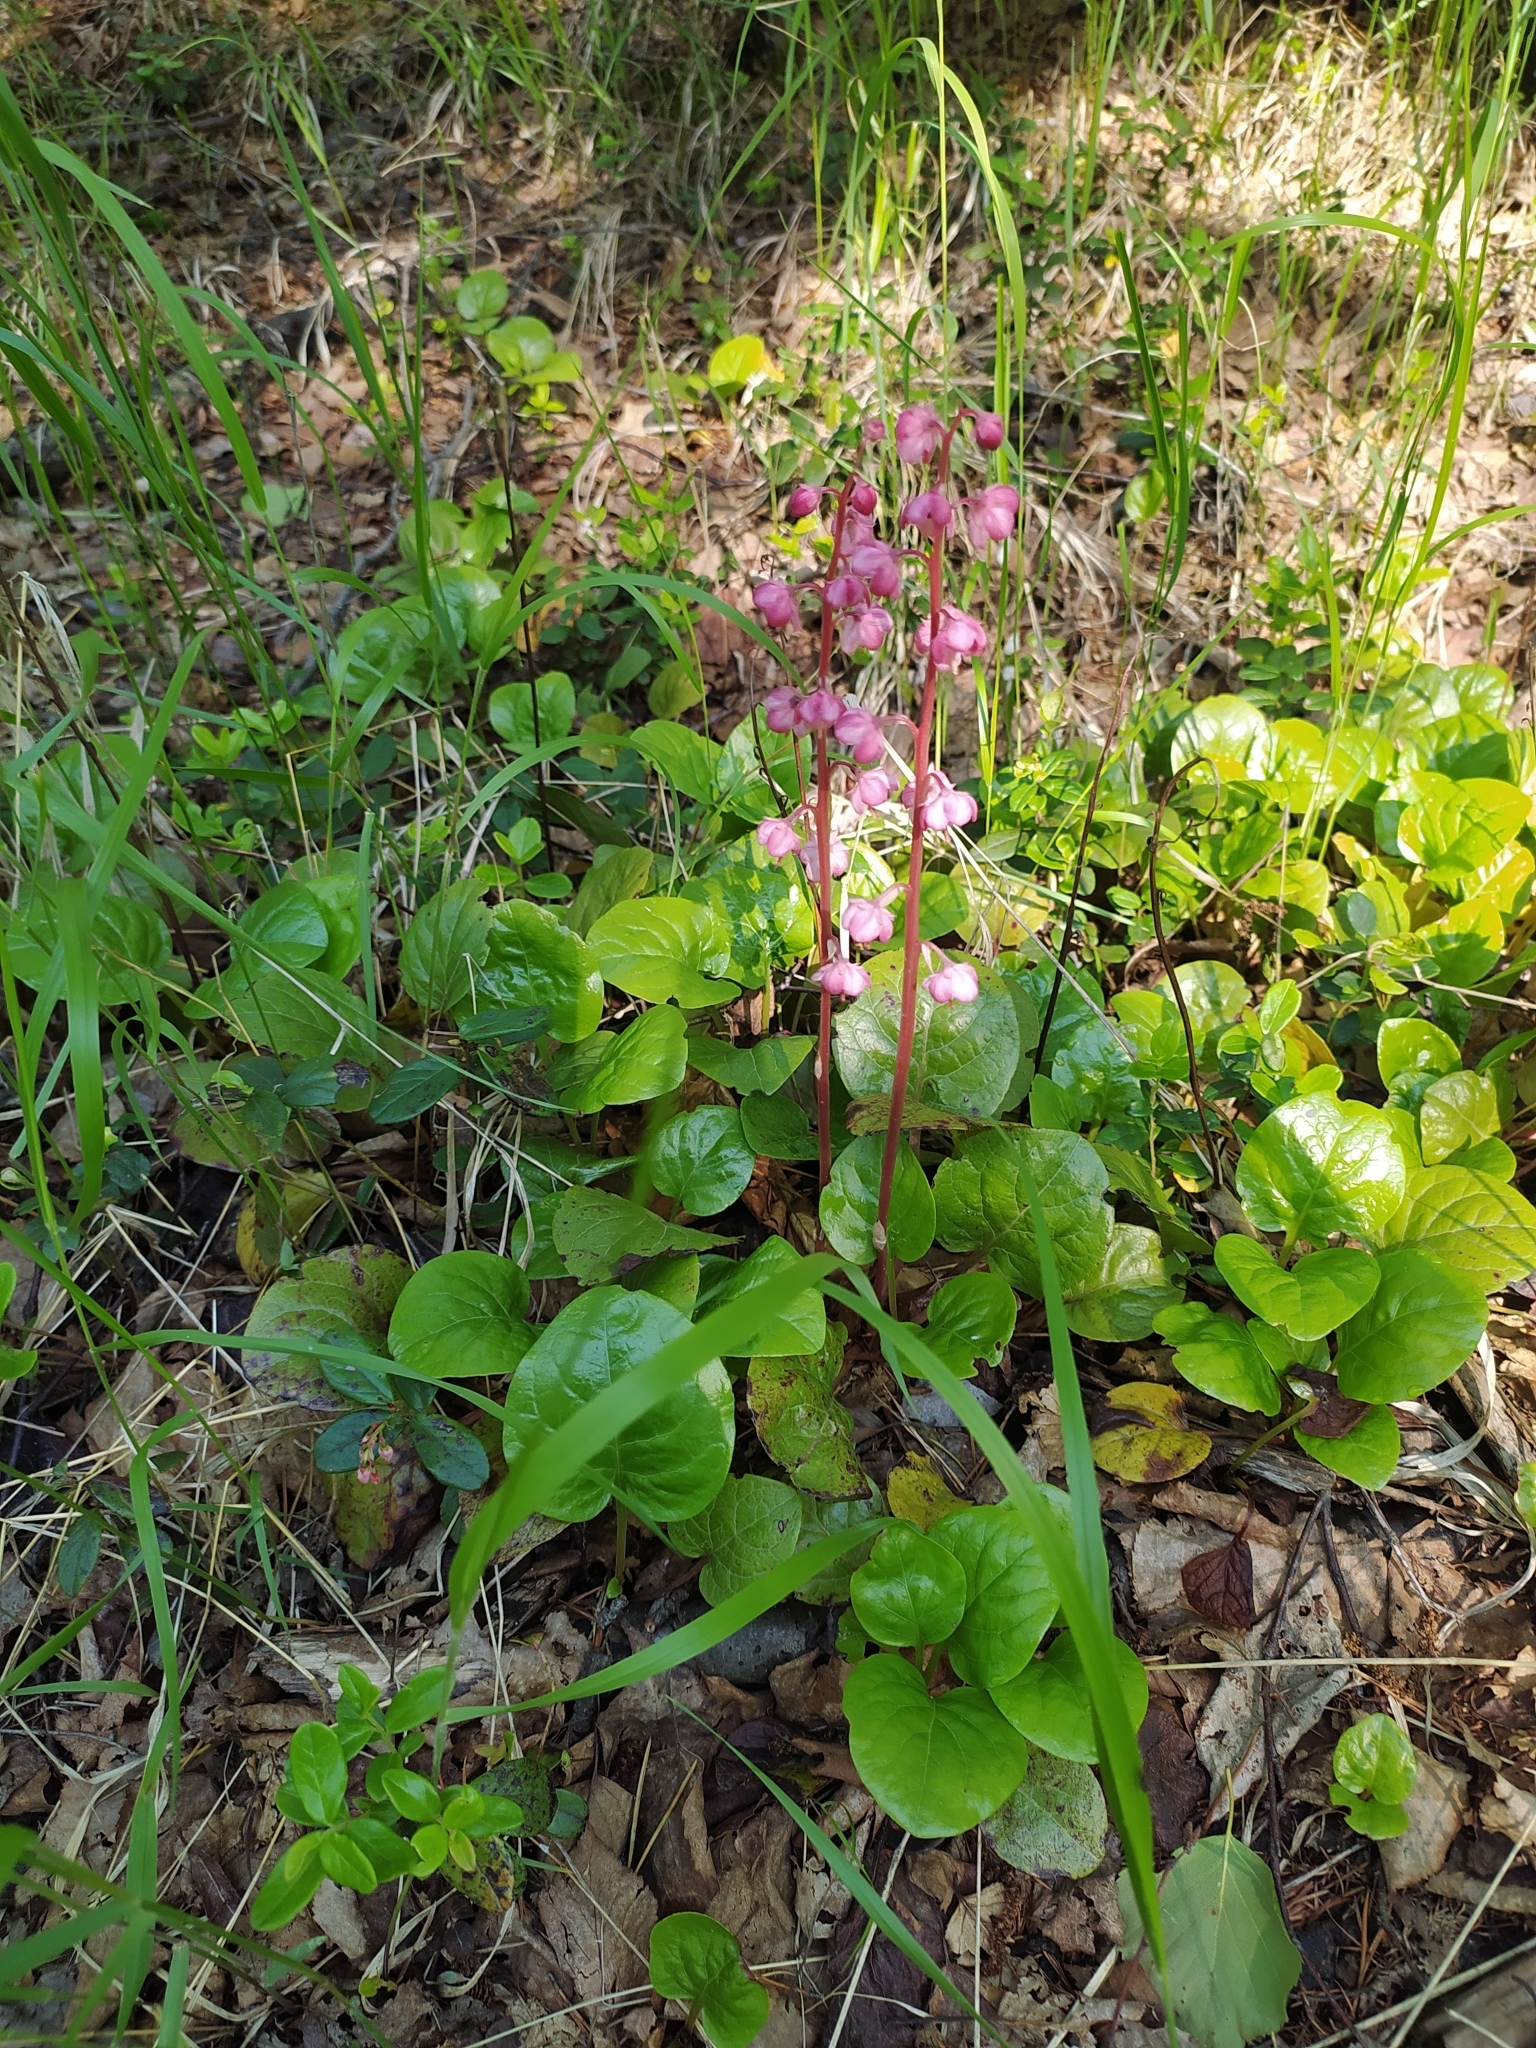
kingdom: Plantae
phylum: Tracheophyta
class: Magnoliopsida
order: Ericales
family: Ericaceae
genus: Pyrola
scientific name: Pyrola asarifolia
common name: Bog wintergreen
